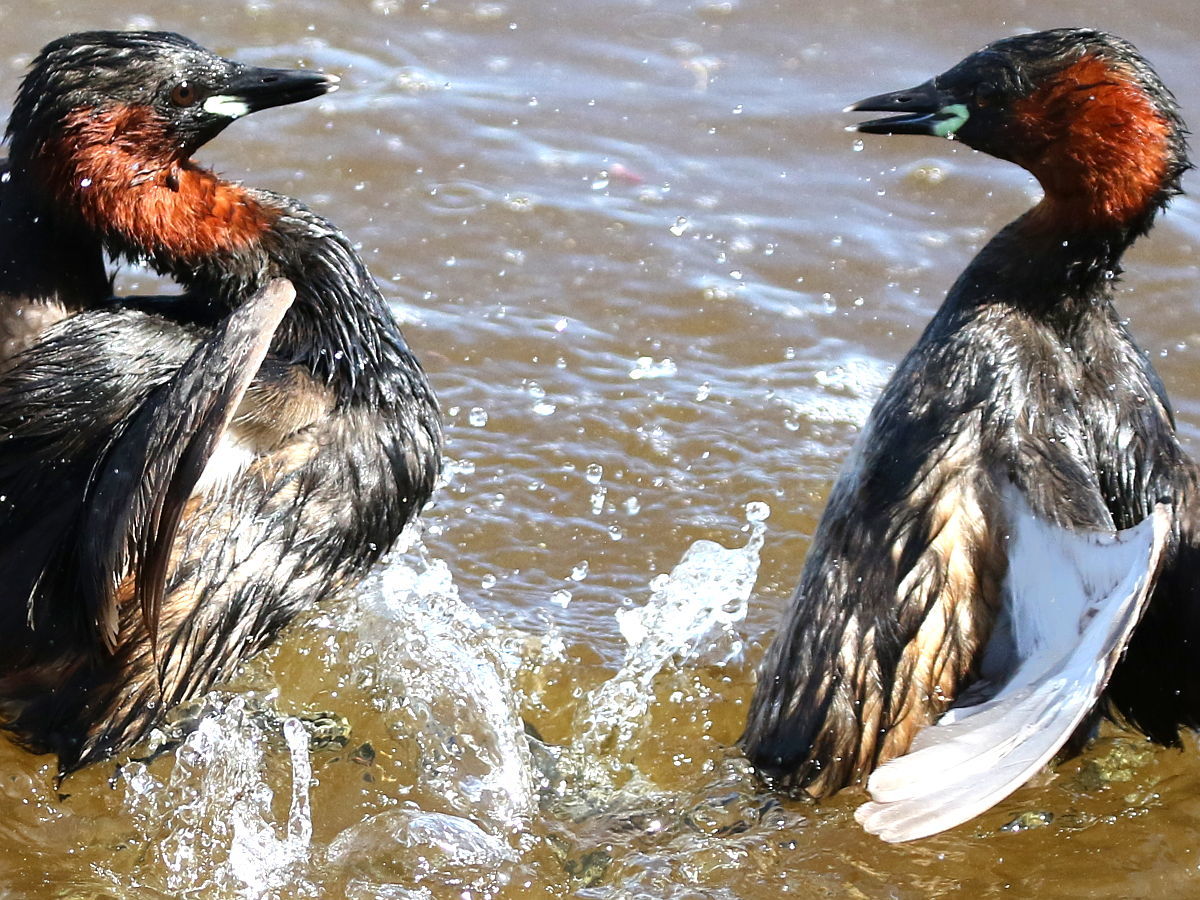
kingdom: Animalia
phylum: Chordata
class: Aves
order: Podicipediformes
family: Podicipedidae
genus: Tachybaptus
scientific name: Tachybaptus ruficollis
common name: Little grebe
